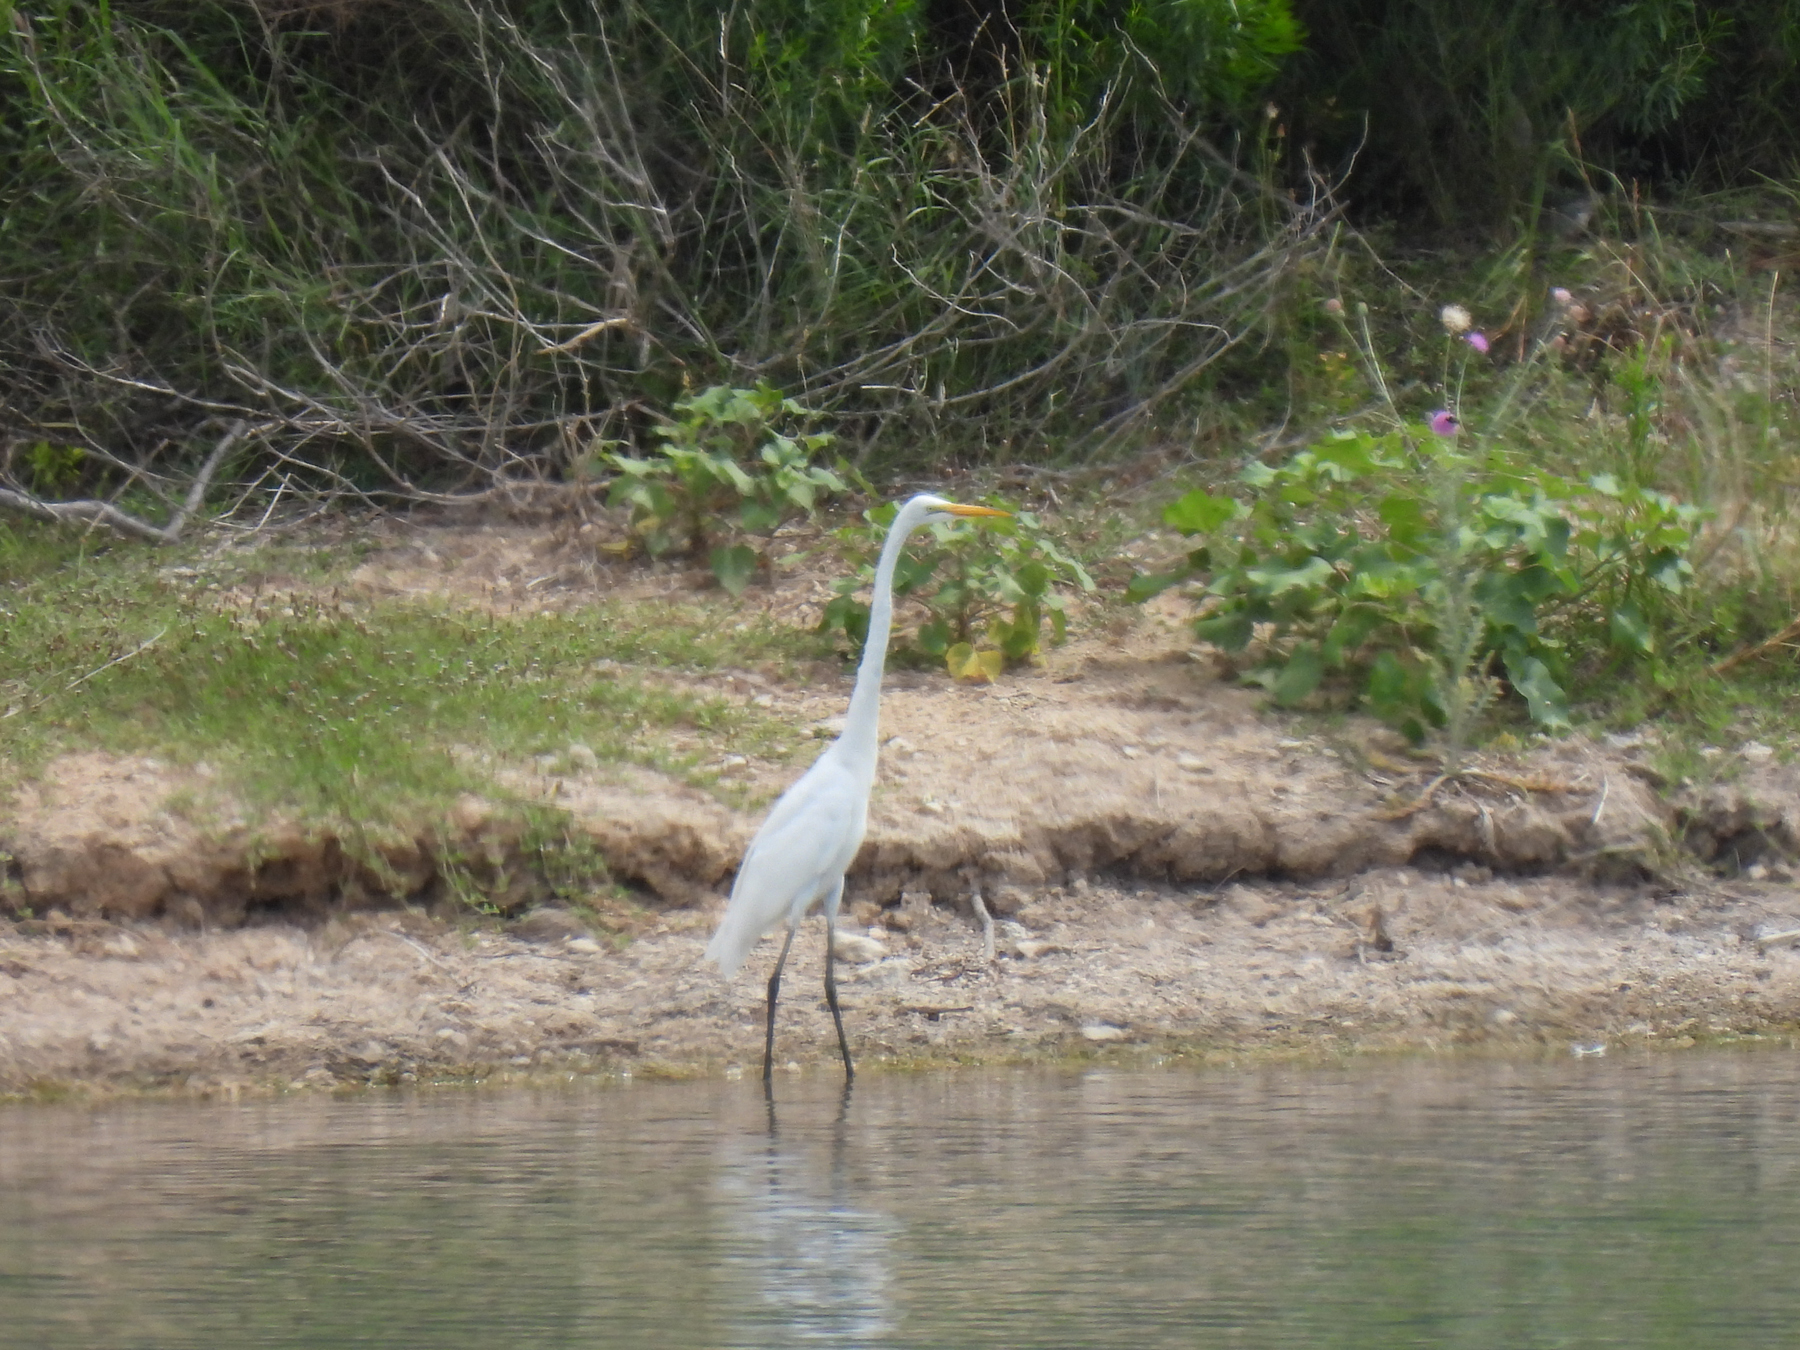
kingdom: Animalia
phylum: Chordata
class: Aves
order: Pelecaniformes
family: Ardeidae
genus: Ardea
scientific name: Ardea alba
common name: Great egret
